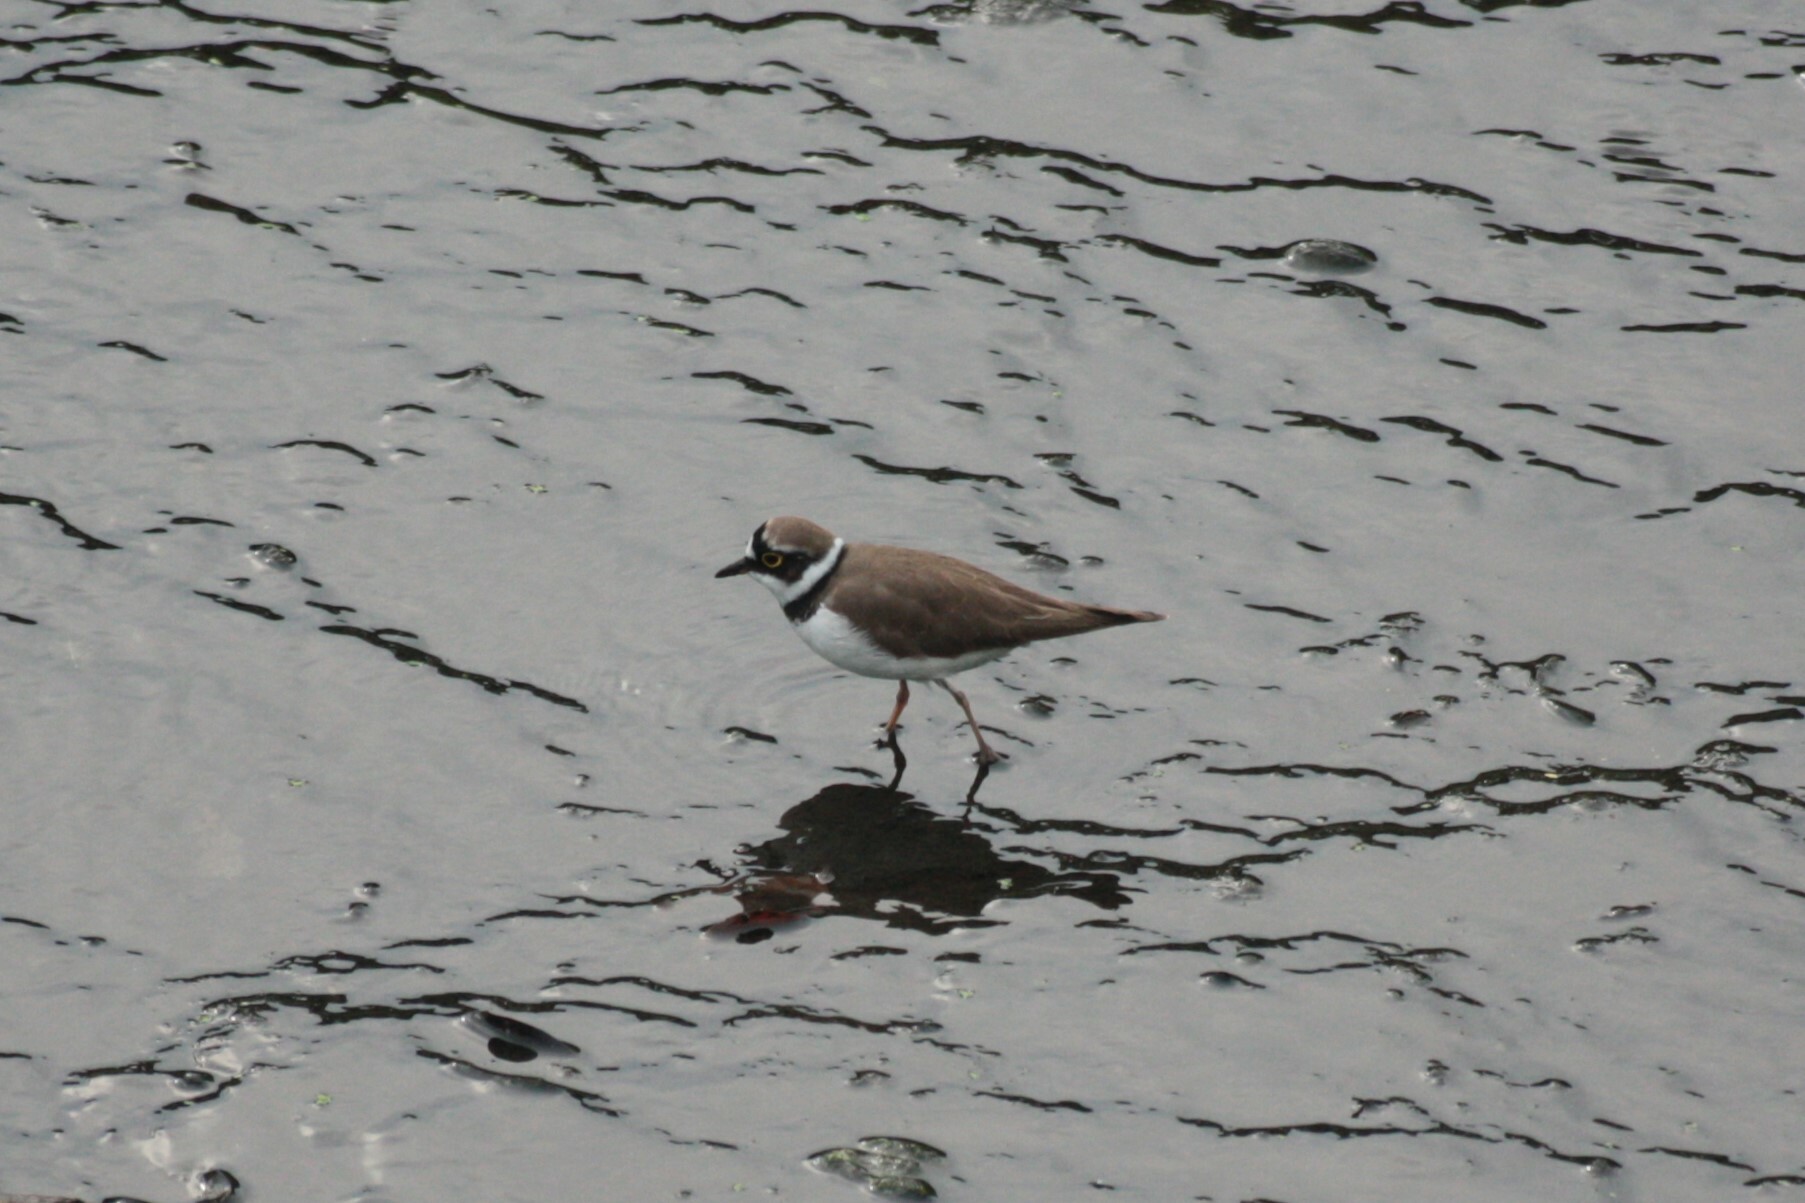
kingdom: Animalia
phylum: Chordata
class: Aves
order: Charadriiformes
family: Charadriidae
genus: Charadrius
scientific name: Charadrius dubius
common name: Little ringed plover
